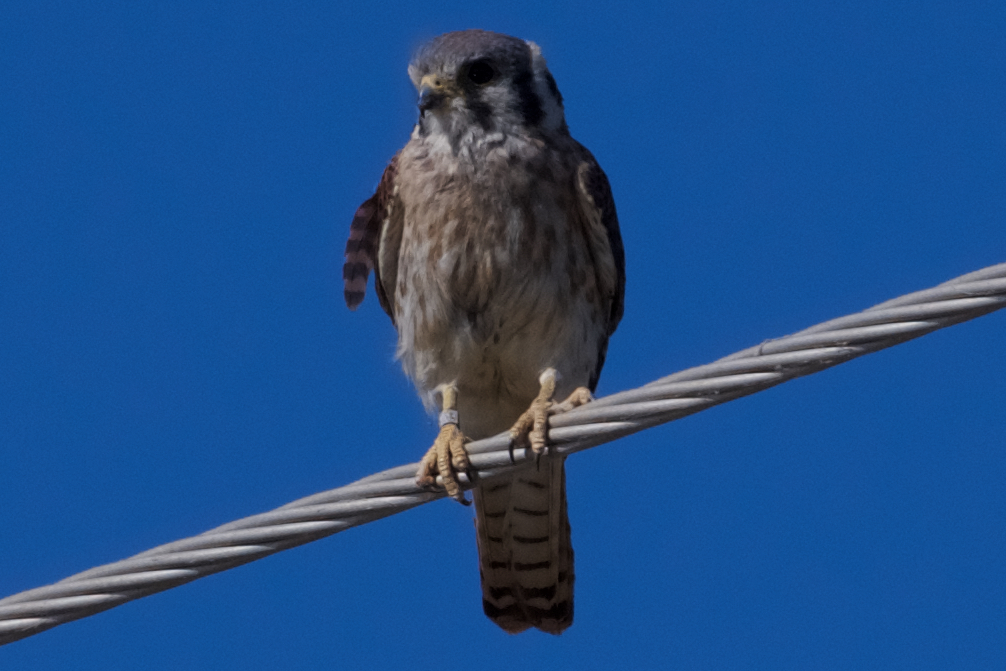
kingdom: Animalia
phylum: Chordata
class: Aves
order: Falconiformes
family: Falconidae
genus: Falco
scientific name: Falco sparverius
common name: American kestrel
